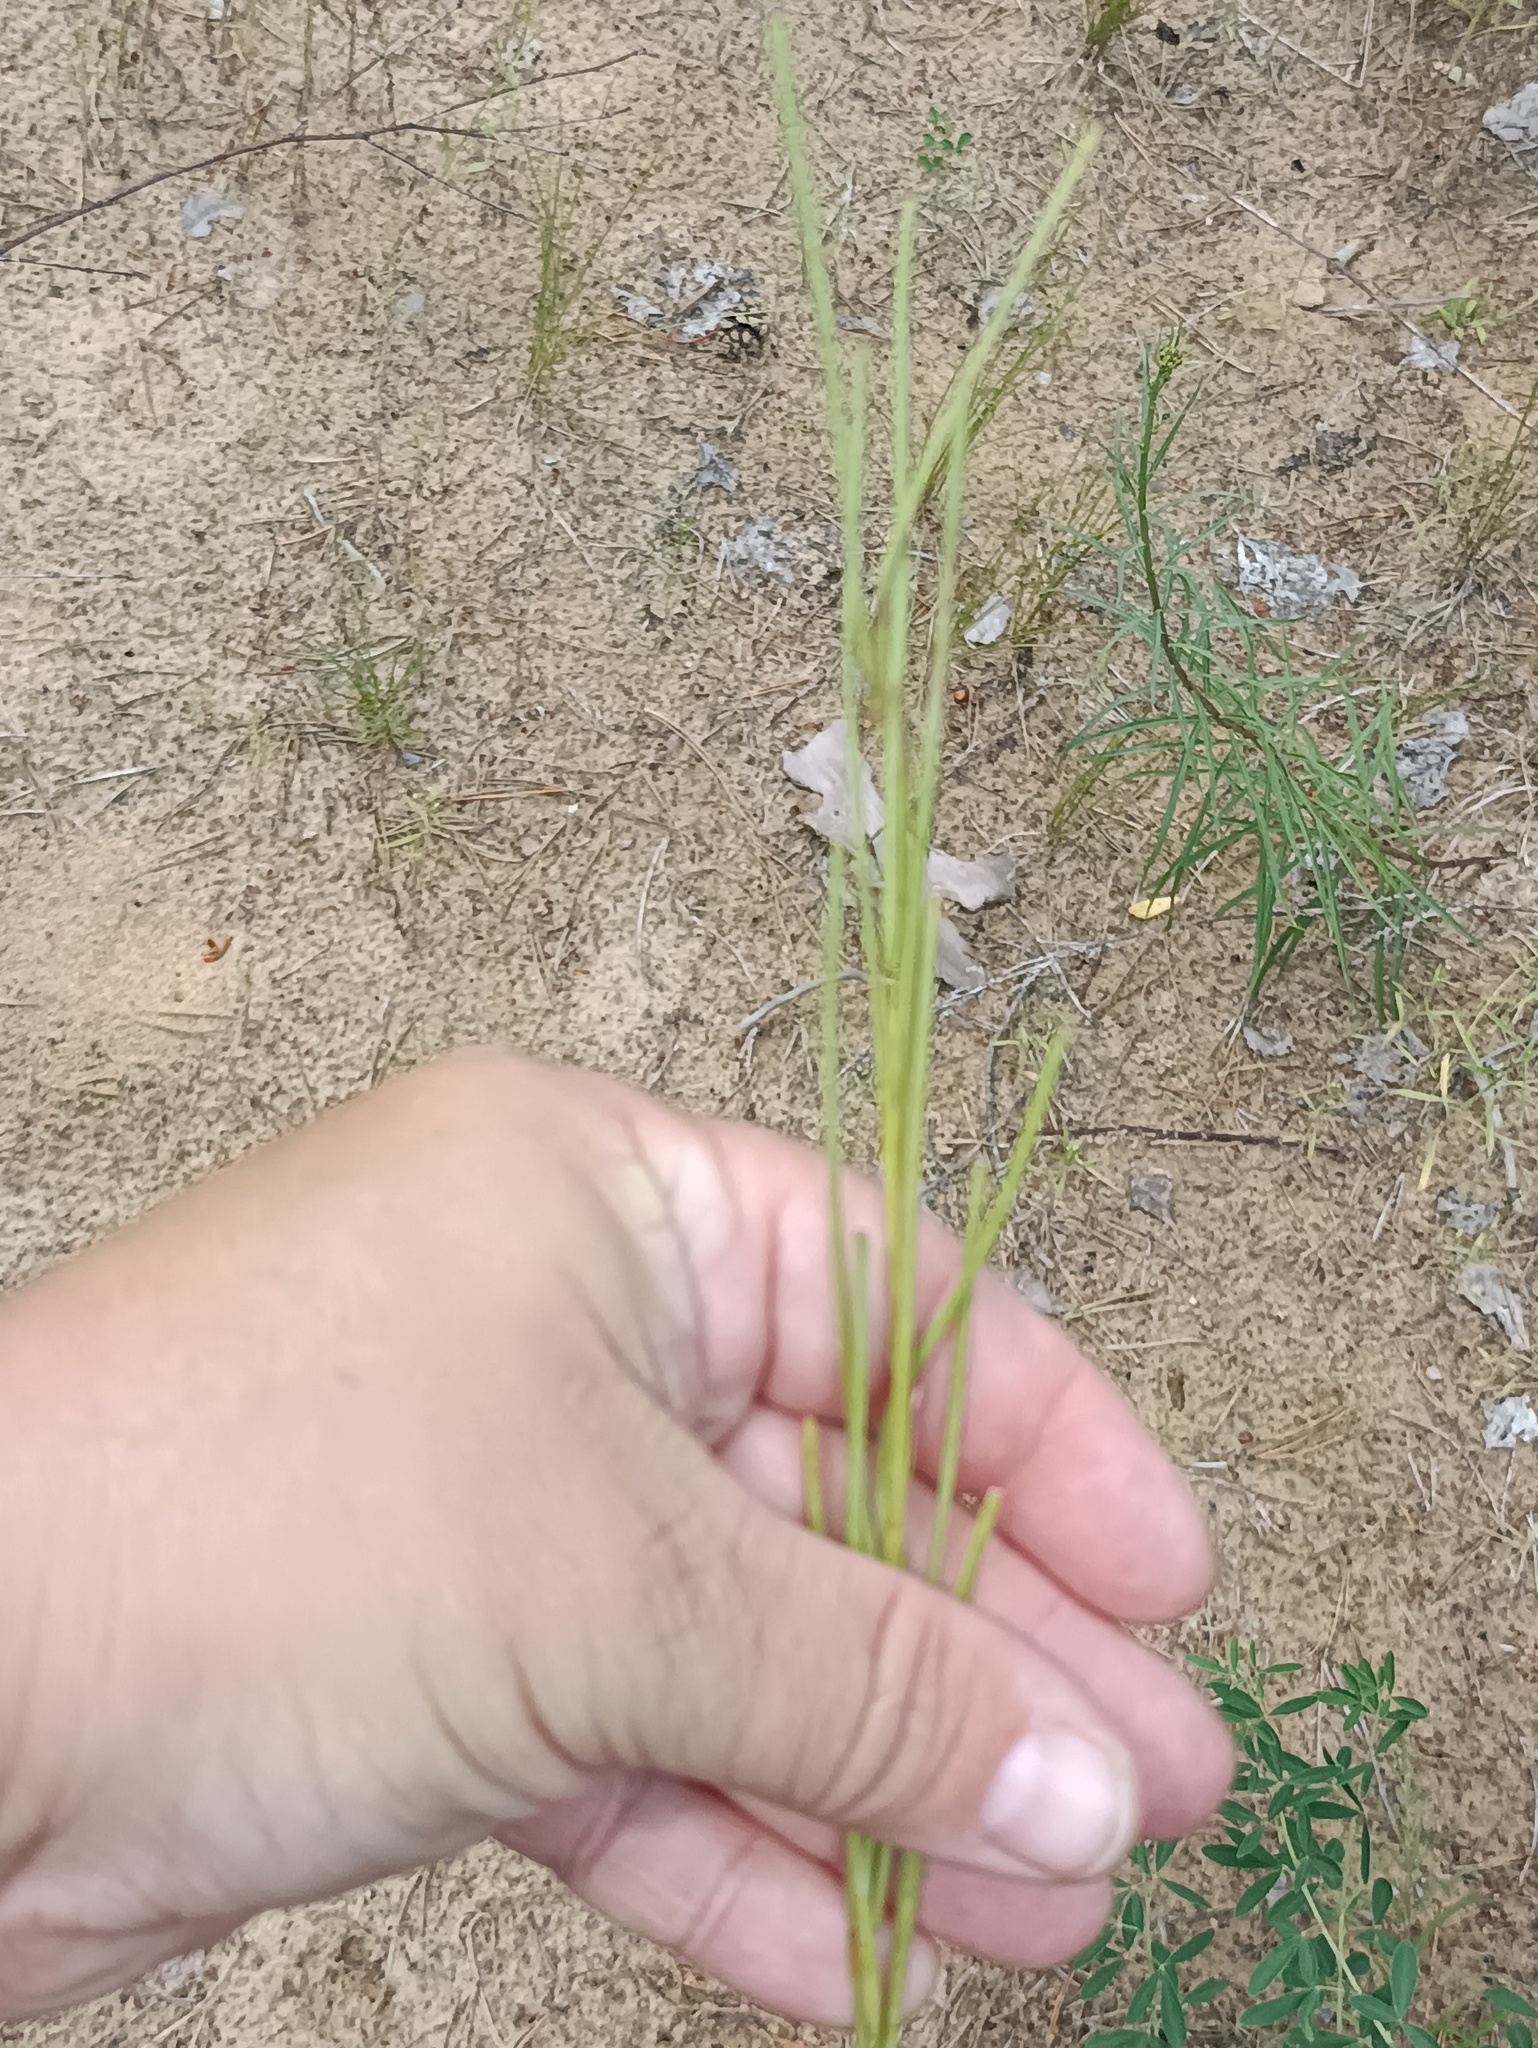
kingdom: Plantae
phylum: Tracheophyta
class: Magnoliopsida
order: Brassicales
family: Brassicaceae
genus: Turritis
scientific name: Turritis glabra
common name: Tower rockcress
